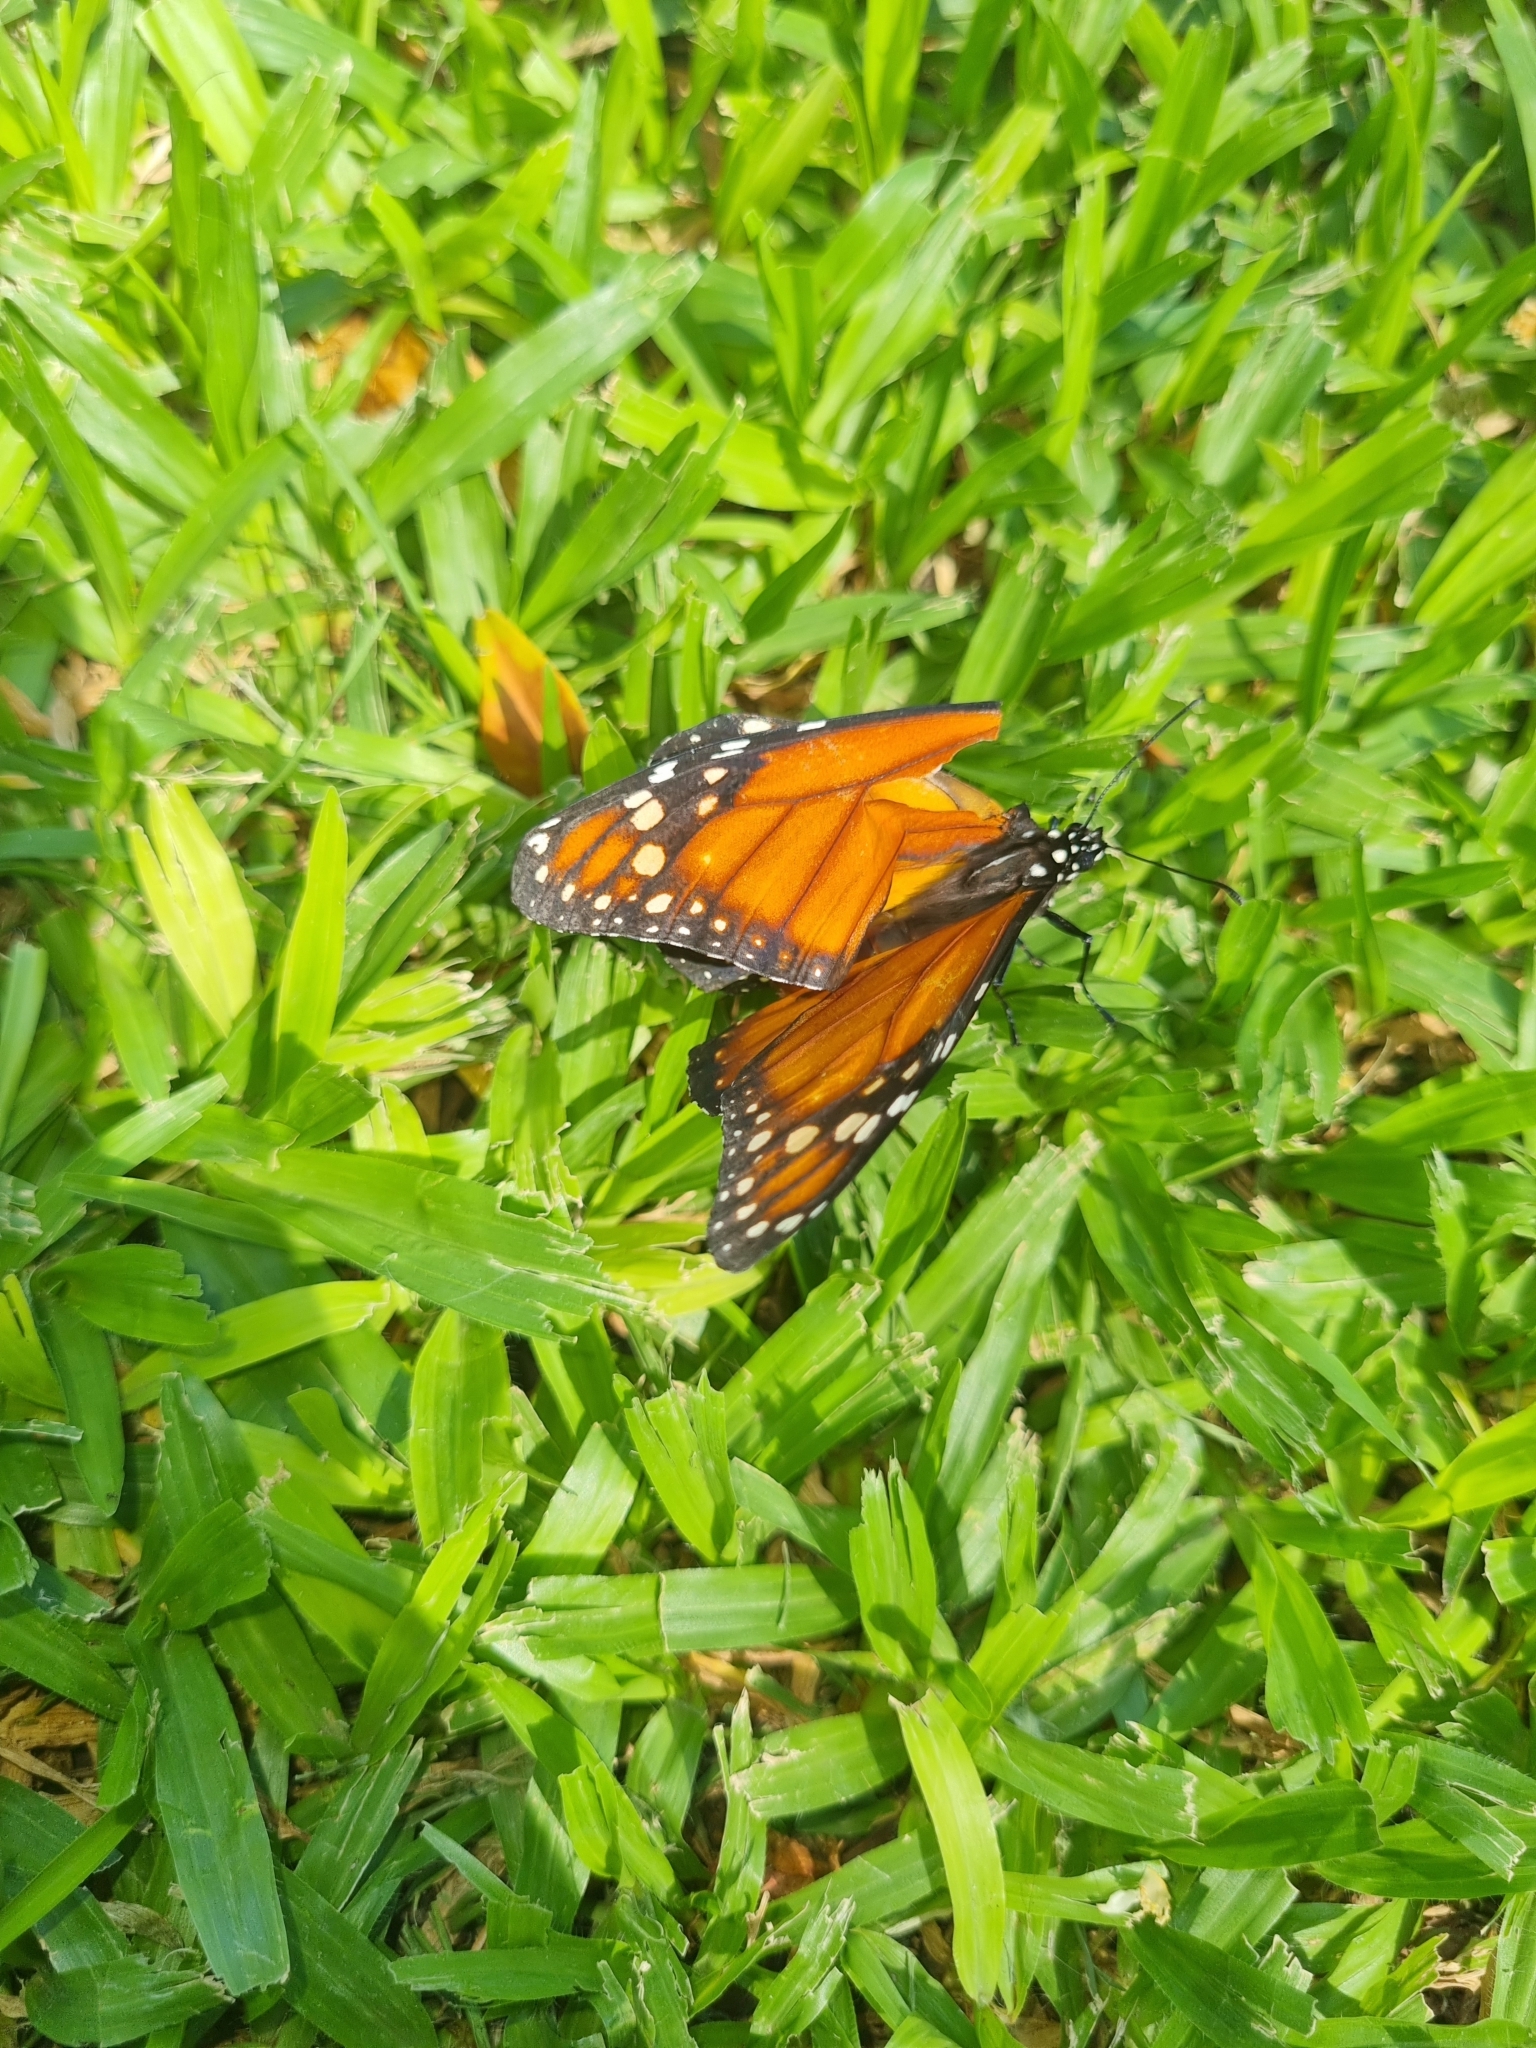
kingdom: Animalia
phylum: Arthropoda
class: Insecta
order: Lepidoptera
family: Nymphalidae
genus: Danaus
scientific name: Danaus erippus
